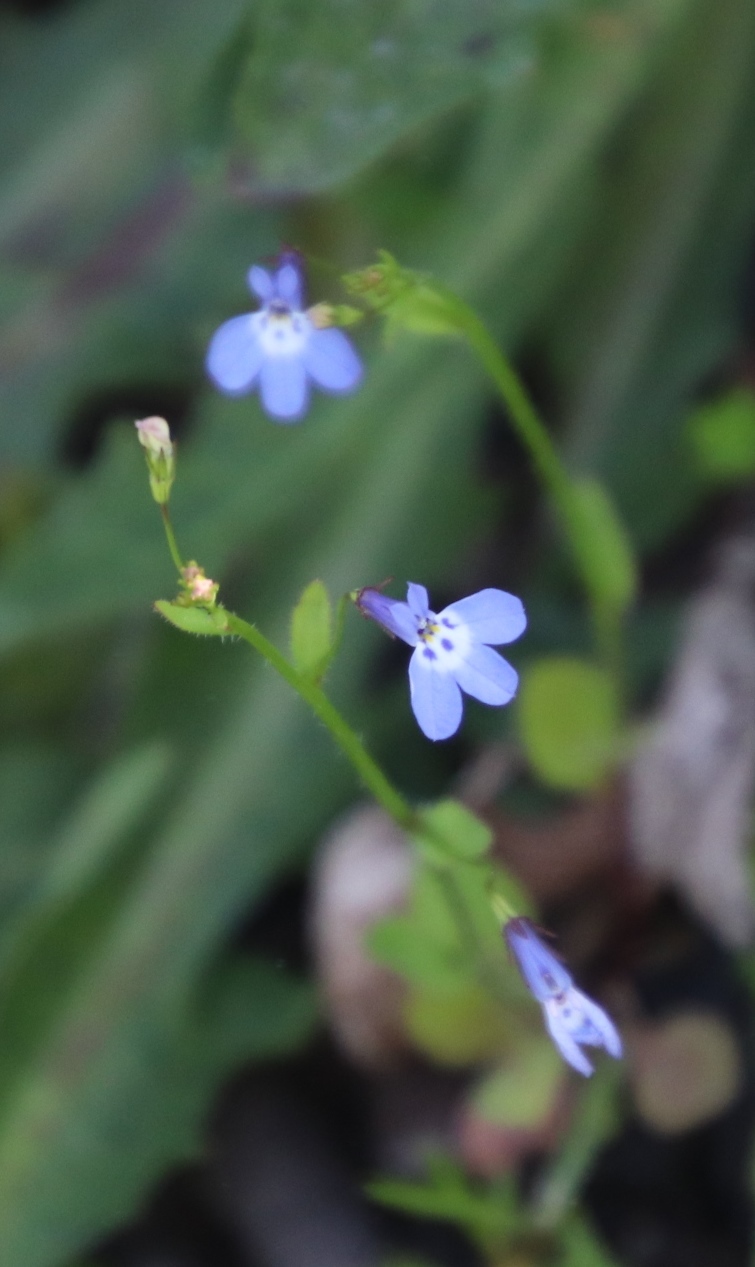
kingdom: Plantae
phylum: Tracheophyta
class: Magnoliopsida
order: Asterales
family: Campanulaceae
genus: Lobelia
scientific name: Lobelia erinus
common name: Edging lobelia
